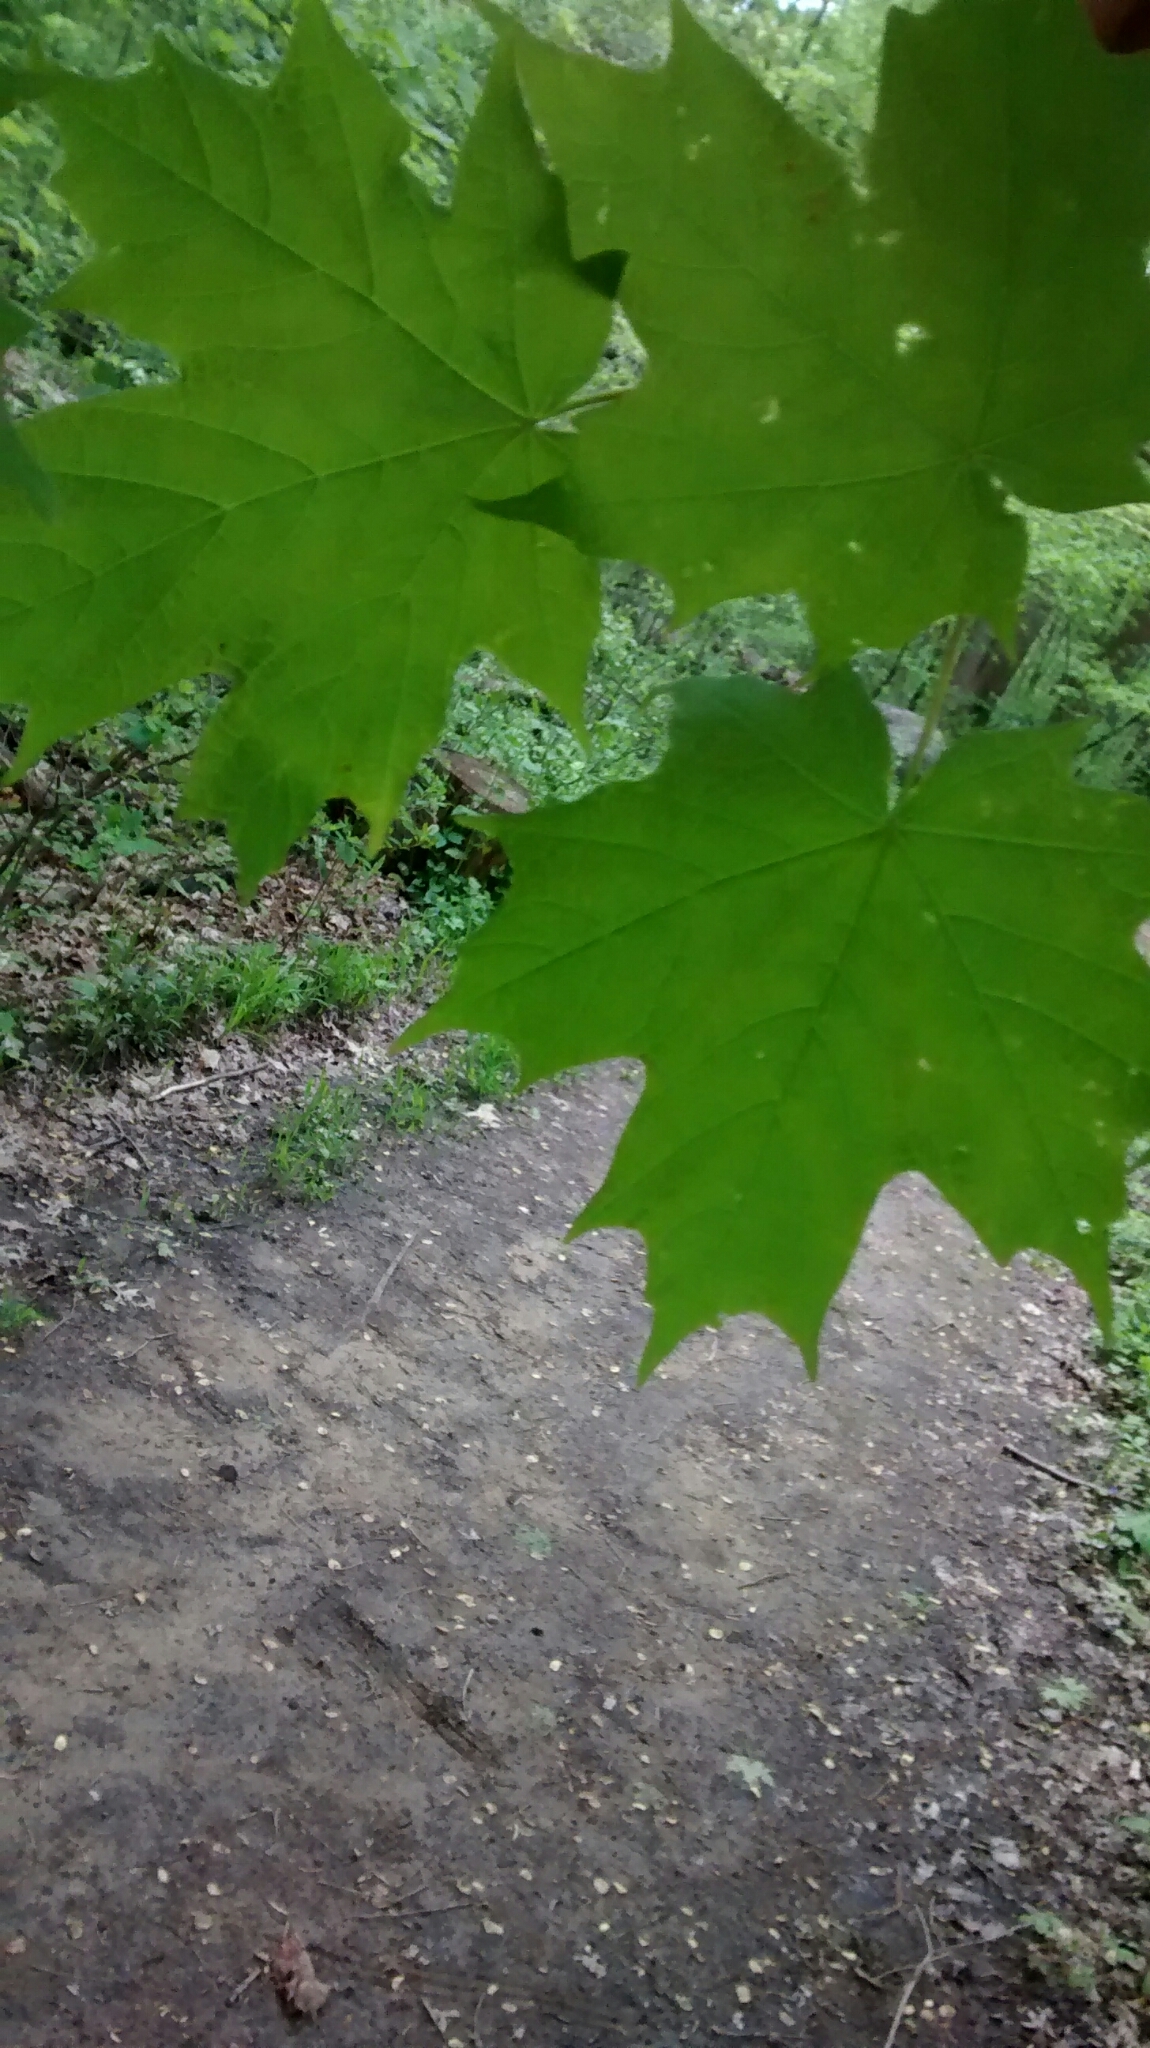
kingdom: Plantae
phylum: Tracheophyta
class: Magnoliopsida
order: Sapindales
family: Sapindaceae
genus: Acer
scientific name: Acer saccharum
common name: Sugar maple
